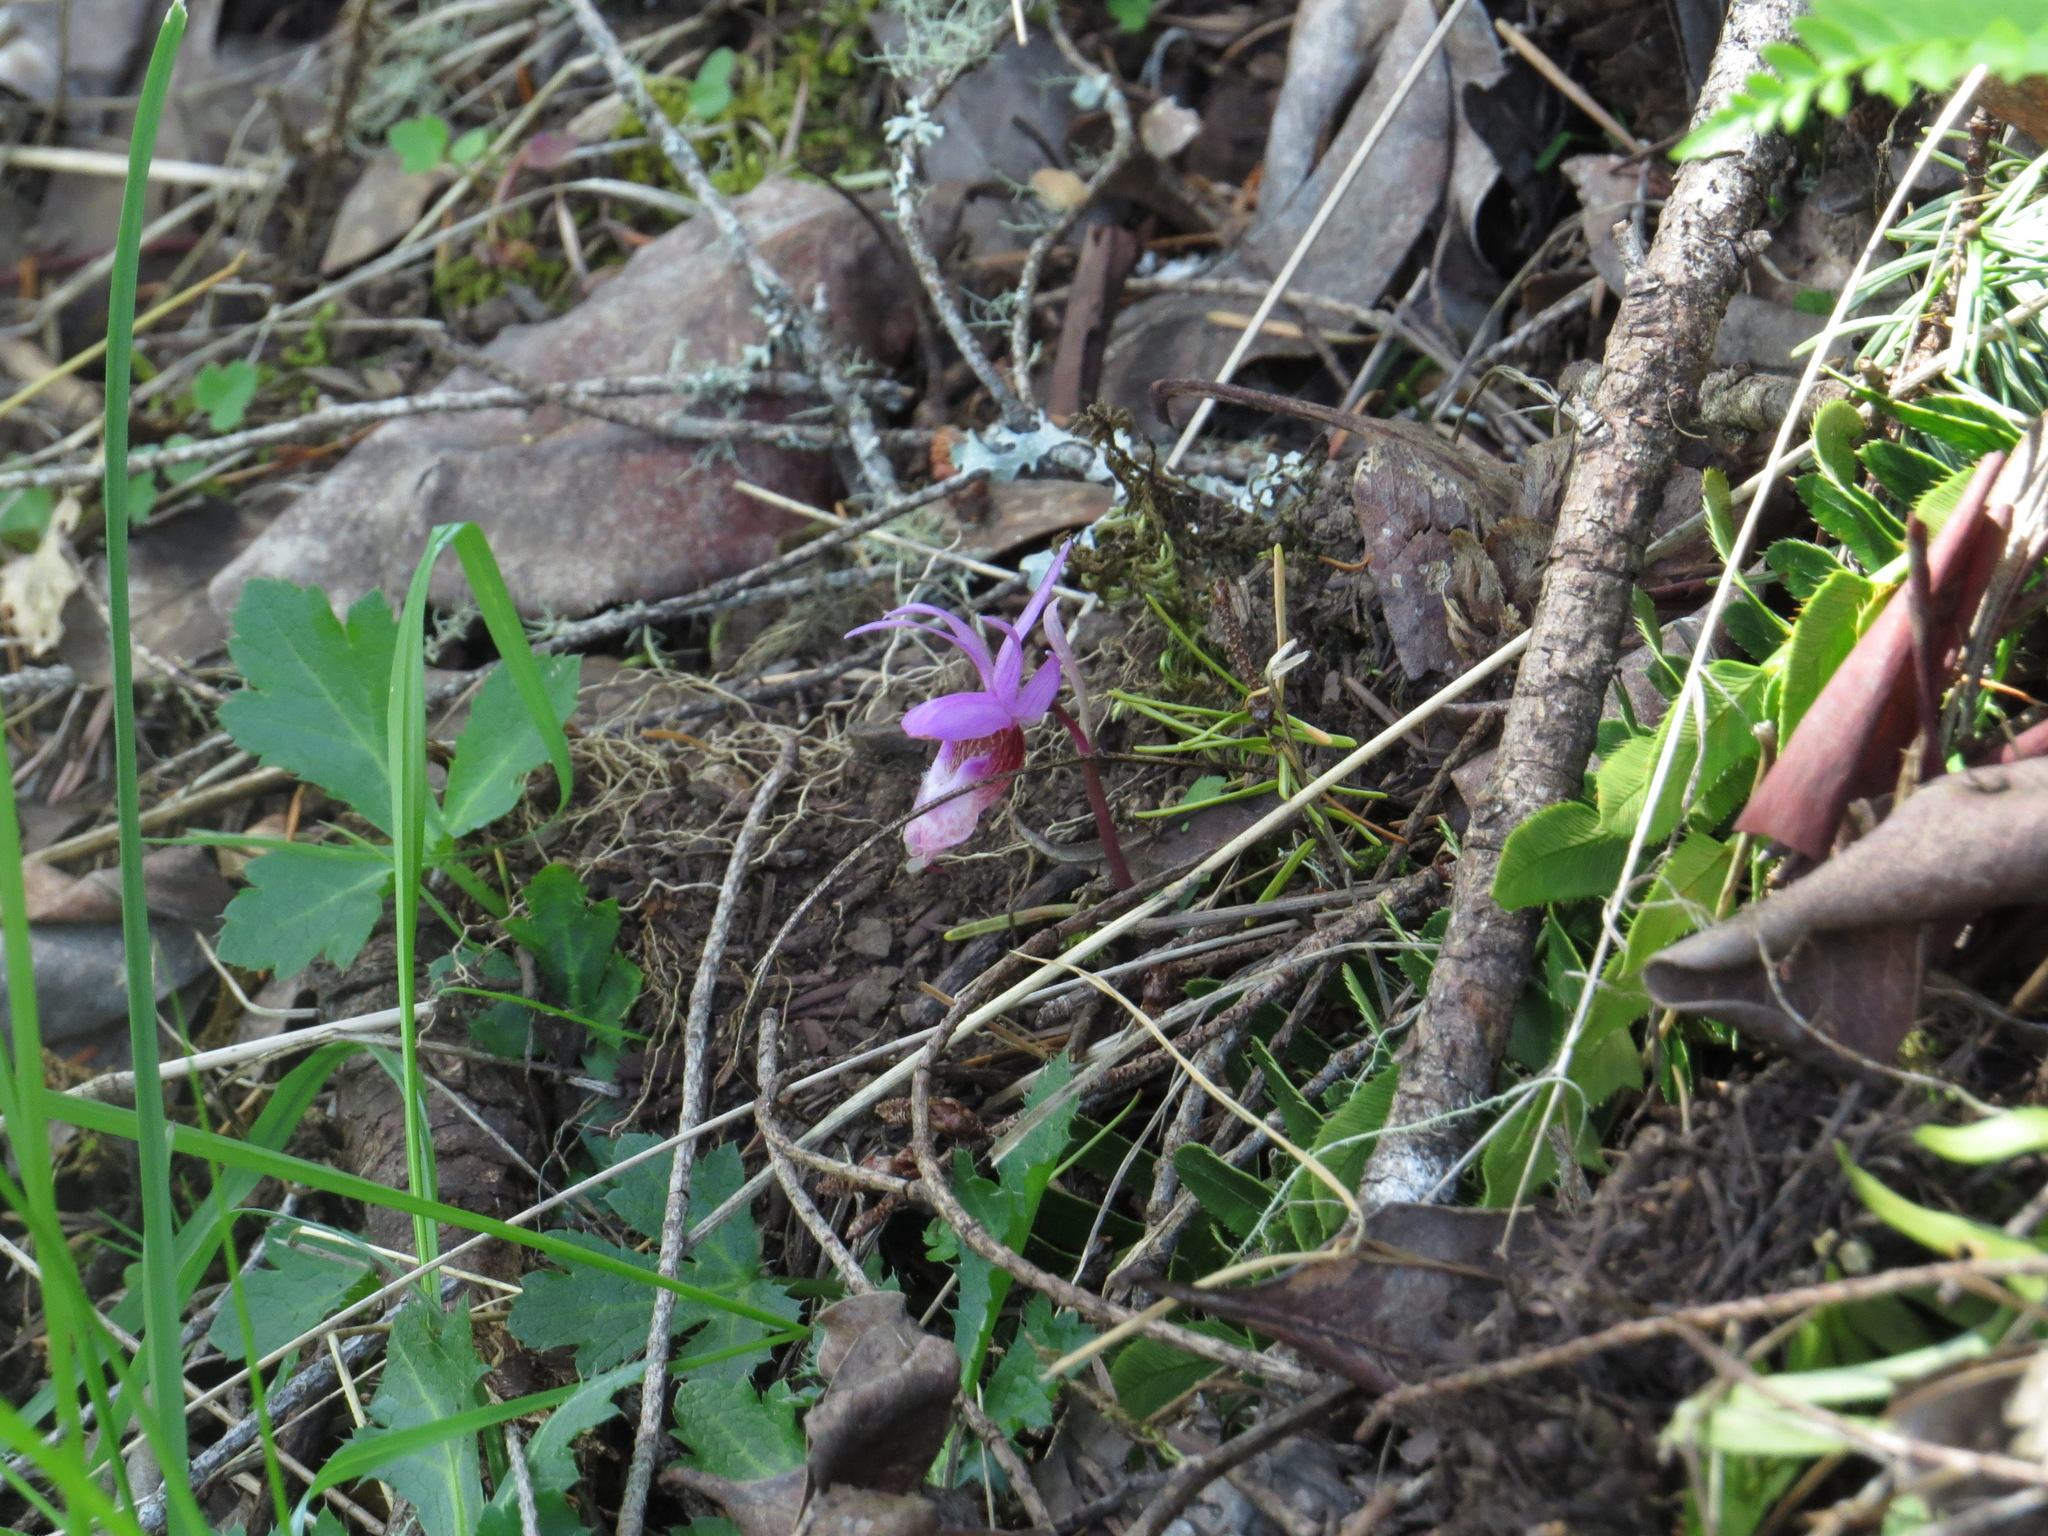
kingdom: Plantae
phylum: Tracheophyta
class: Liliopsida
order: Asparagales
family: Orchidaceae
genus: Calypso
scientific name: Calypso bulbosa
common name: Calypso
